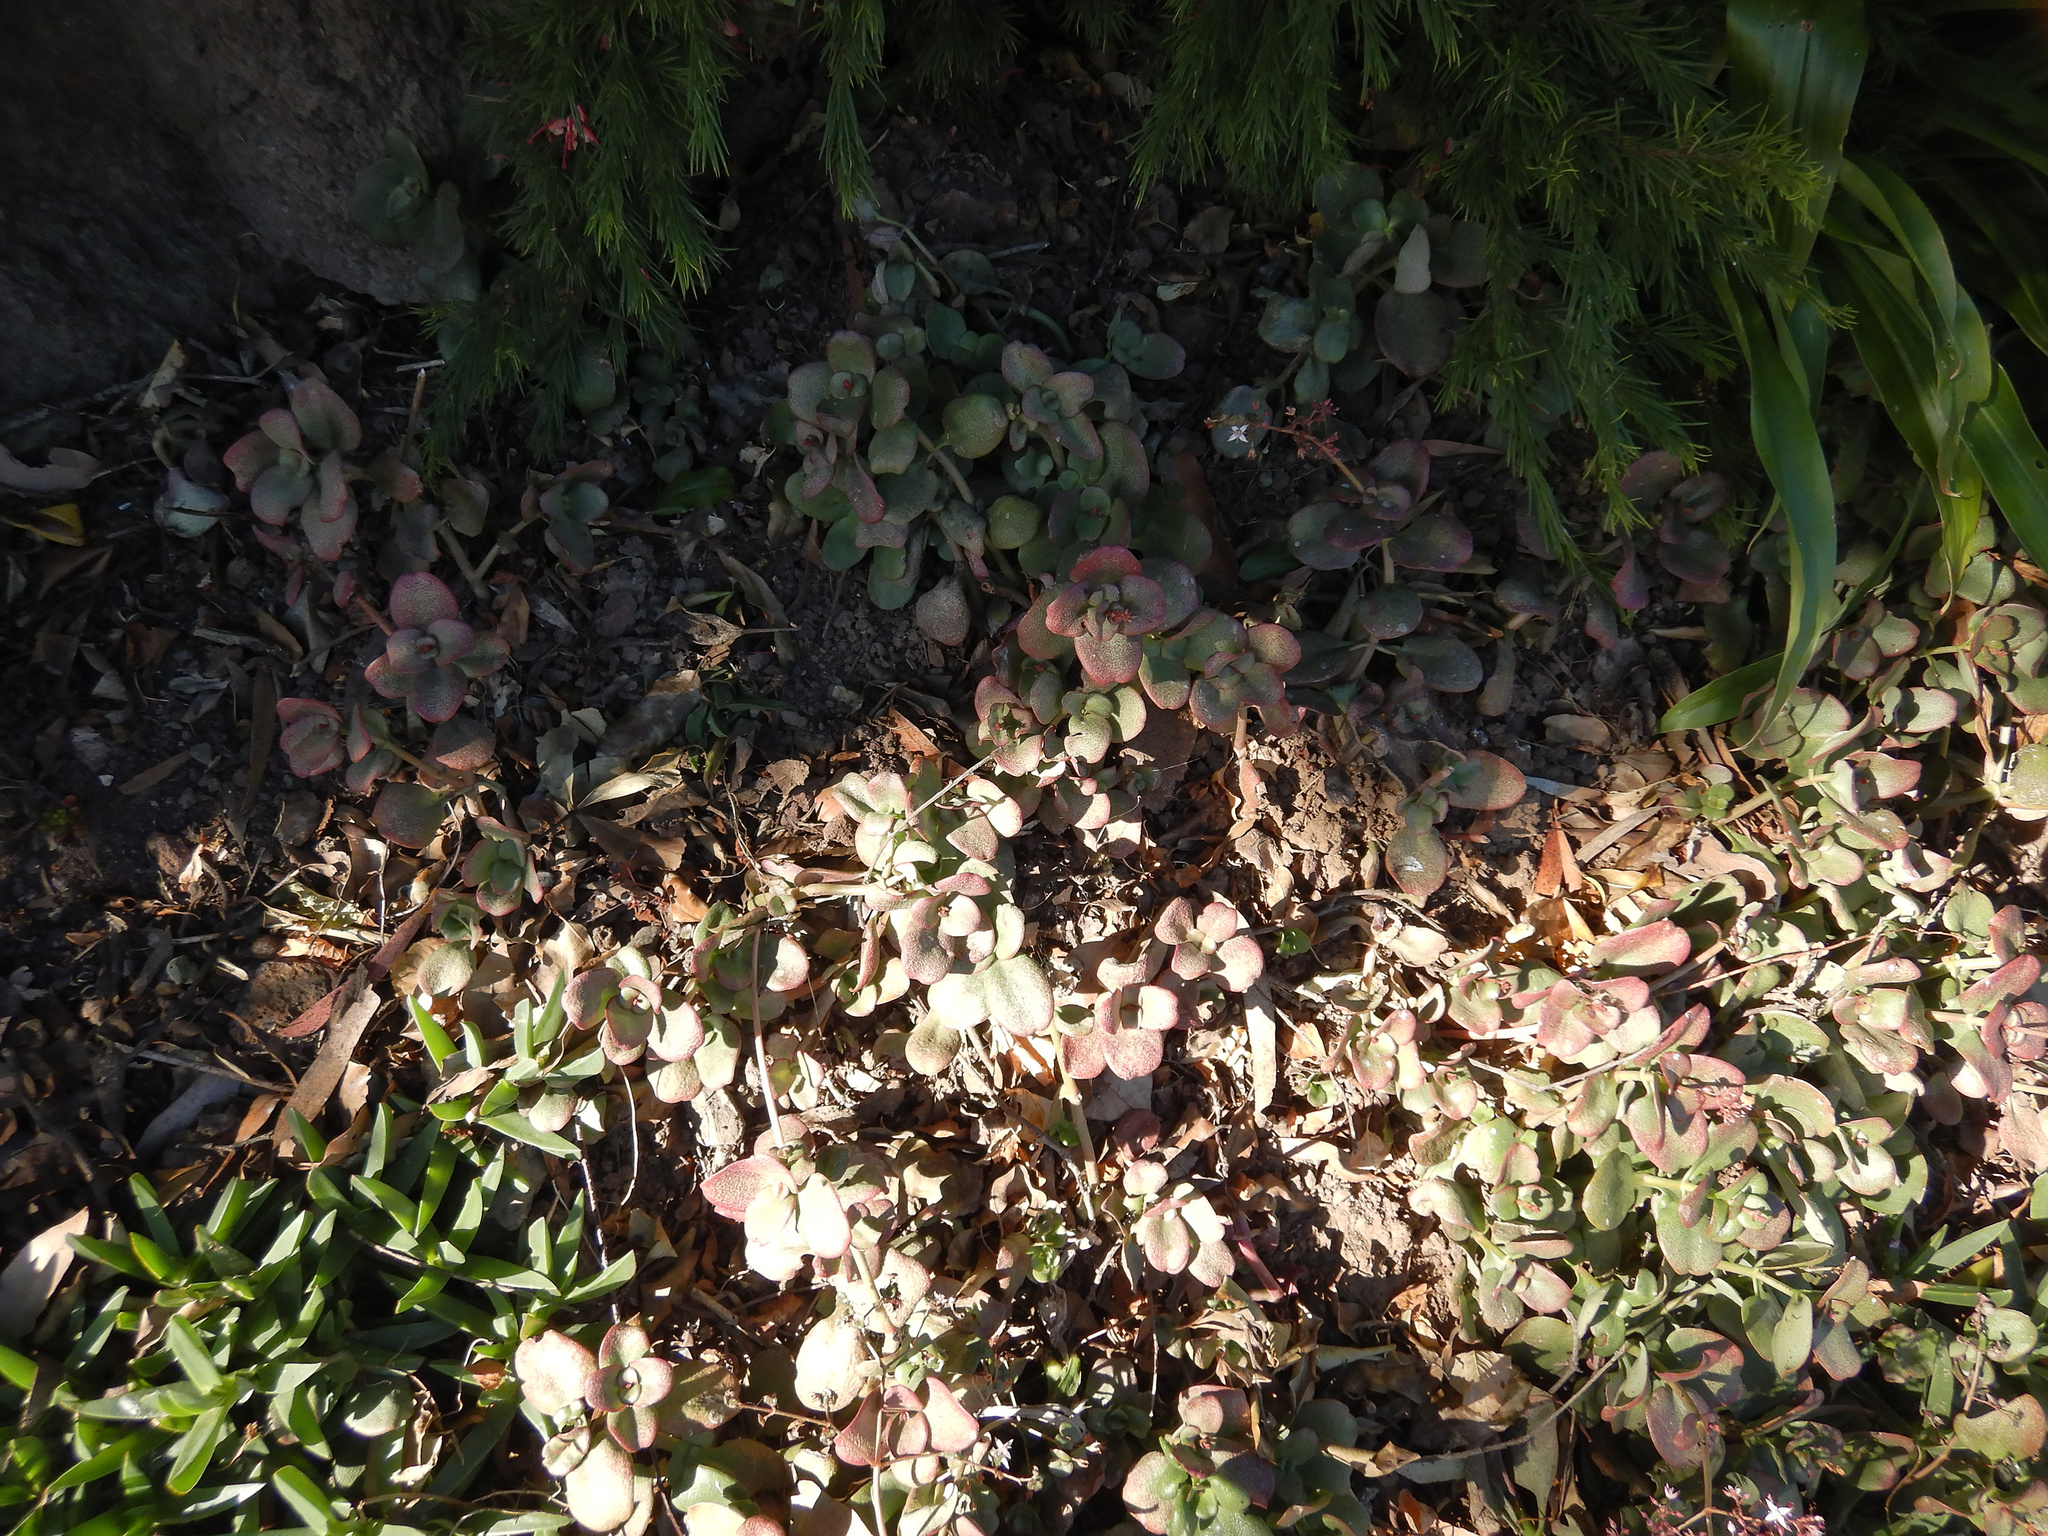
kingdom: Plantae
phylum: Tracheophyta
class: Magnoliopsida
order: Saxifragales
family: Crassulaceae
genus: Crassula
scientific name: Crassula multicava
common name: Cape province pygmyweed
